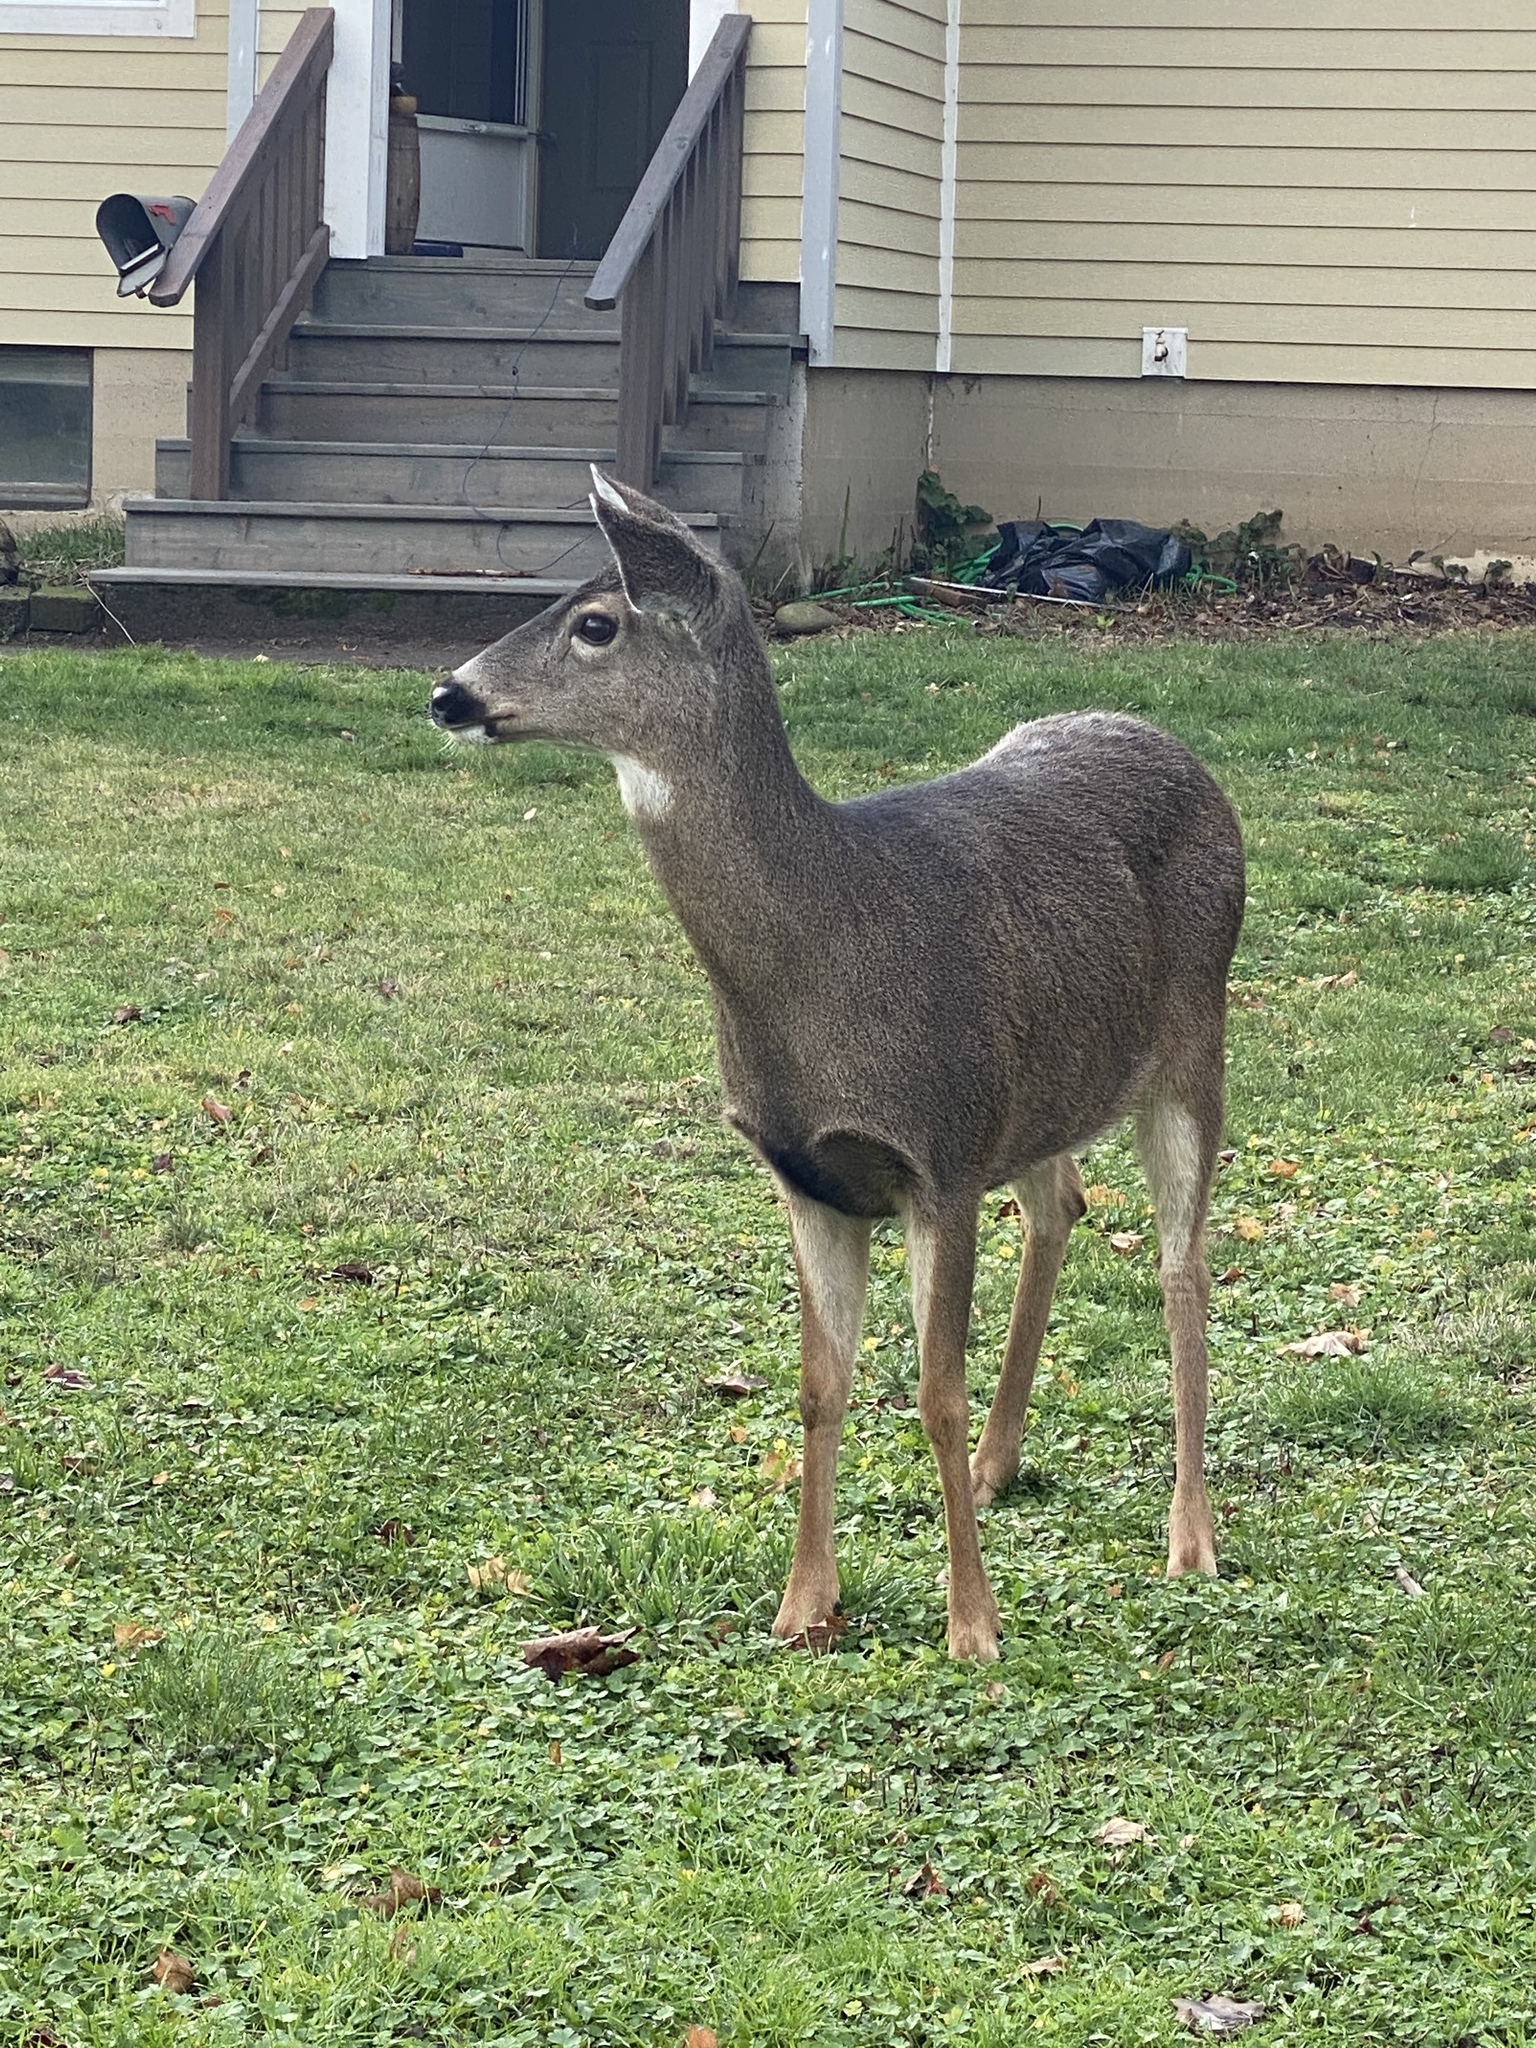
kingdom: Animalia
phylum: Chordata
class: Mammalia
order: Artiodactyla
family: Cervidae
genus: Odocoileus
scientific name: Odocoileus hemionus
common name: Mule deer
